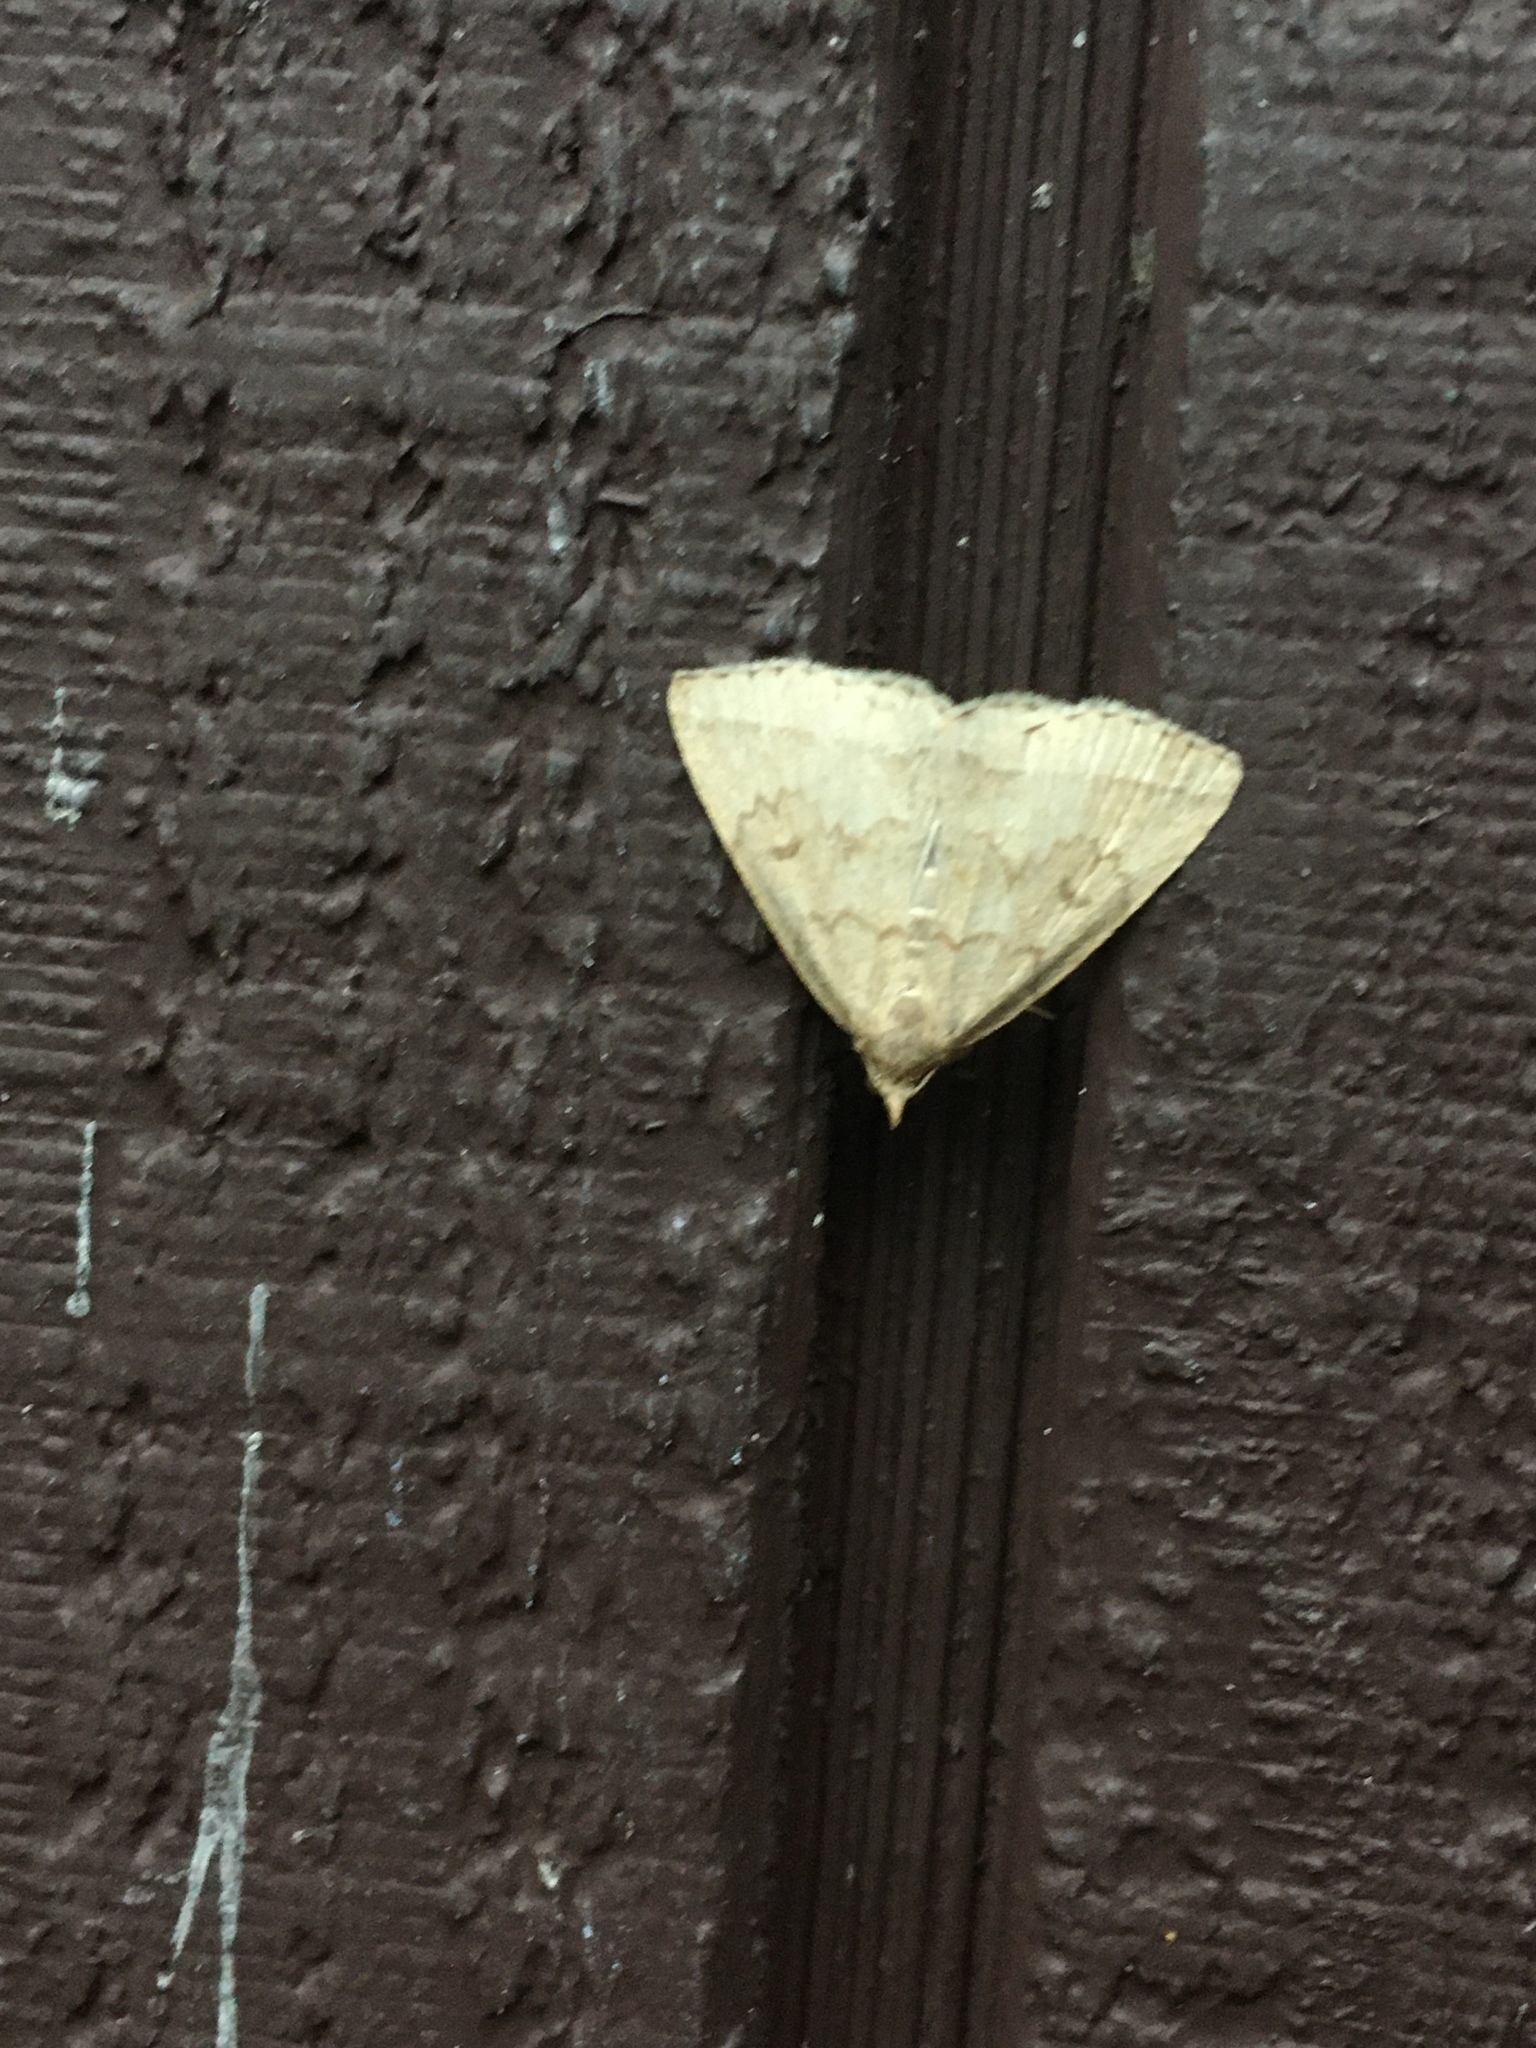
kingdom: Animalia
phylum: Arthropoda
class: Insecta
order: Lepidoptera
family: Erebidae
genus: Zanclognatha
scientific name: Zanclognatha jacchusalis
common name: Yellowish zanclognatha
